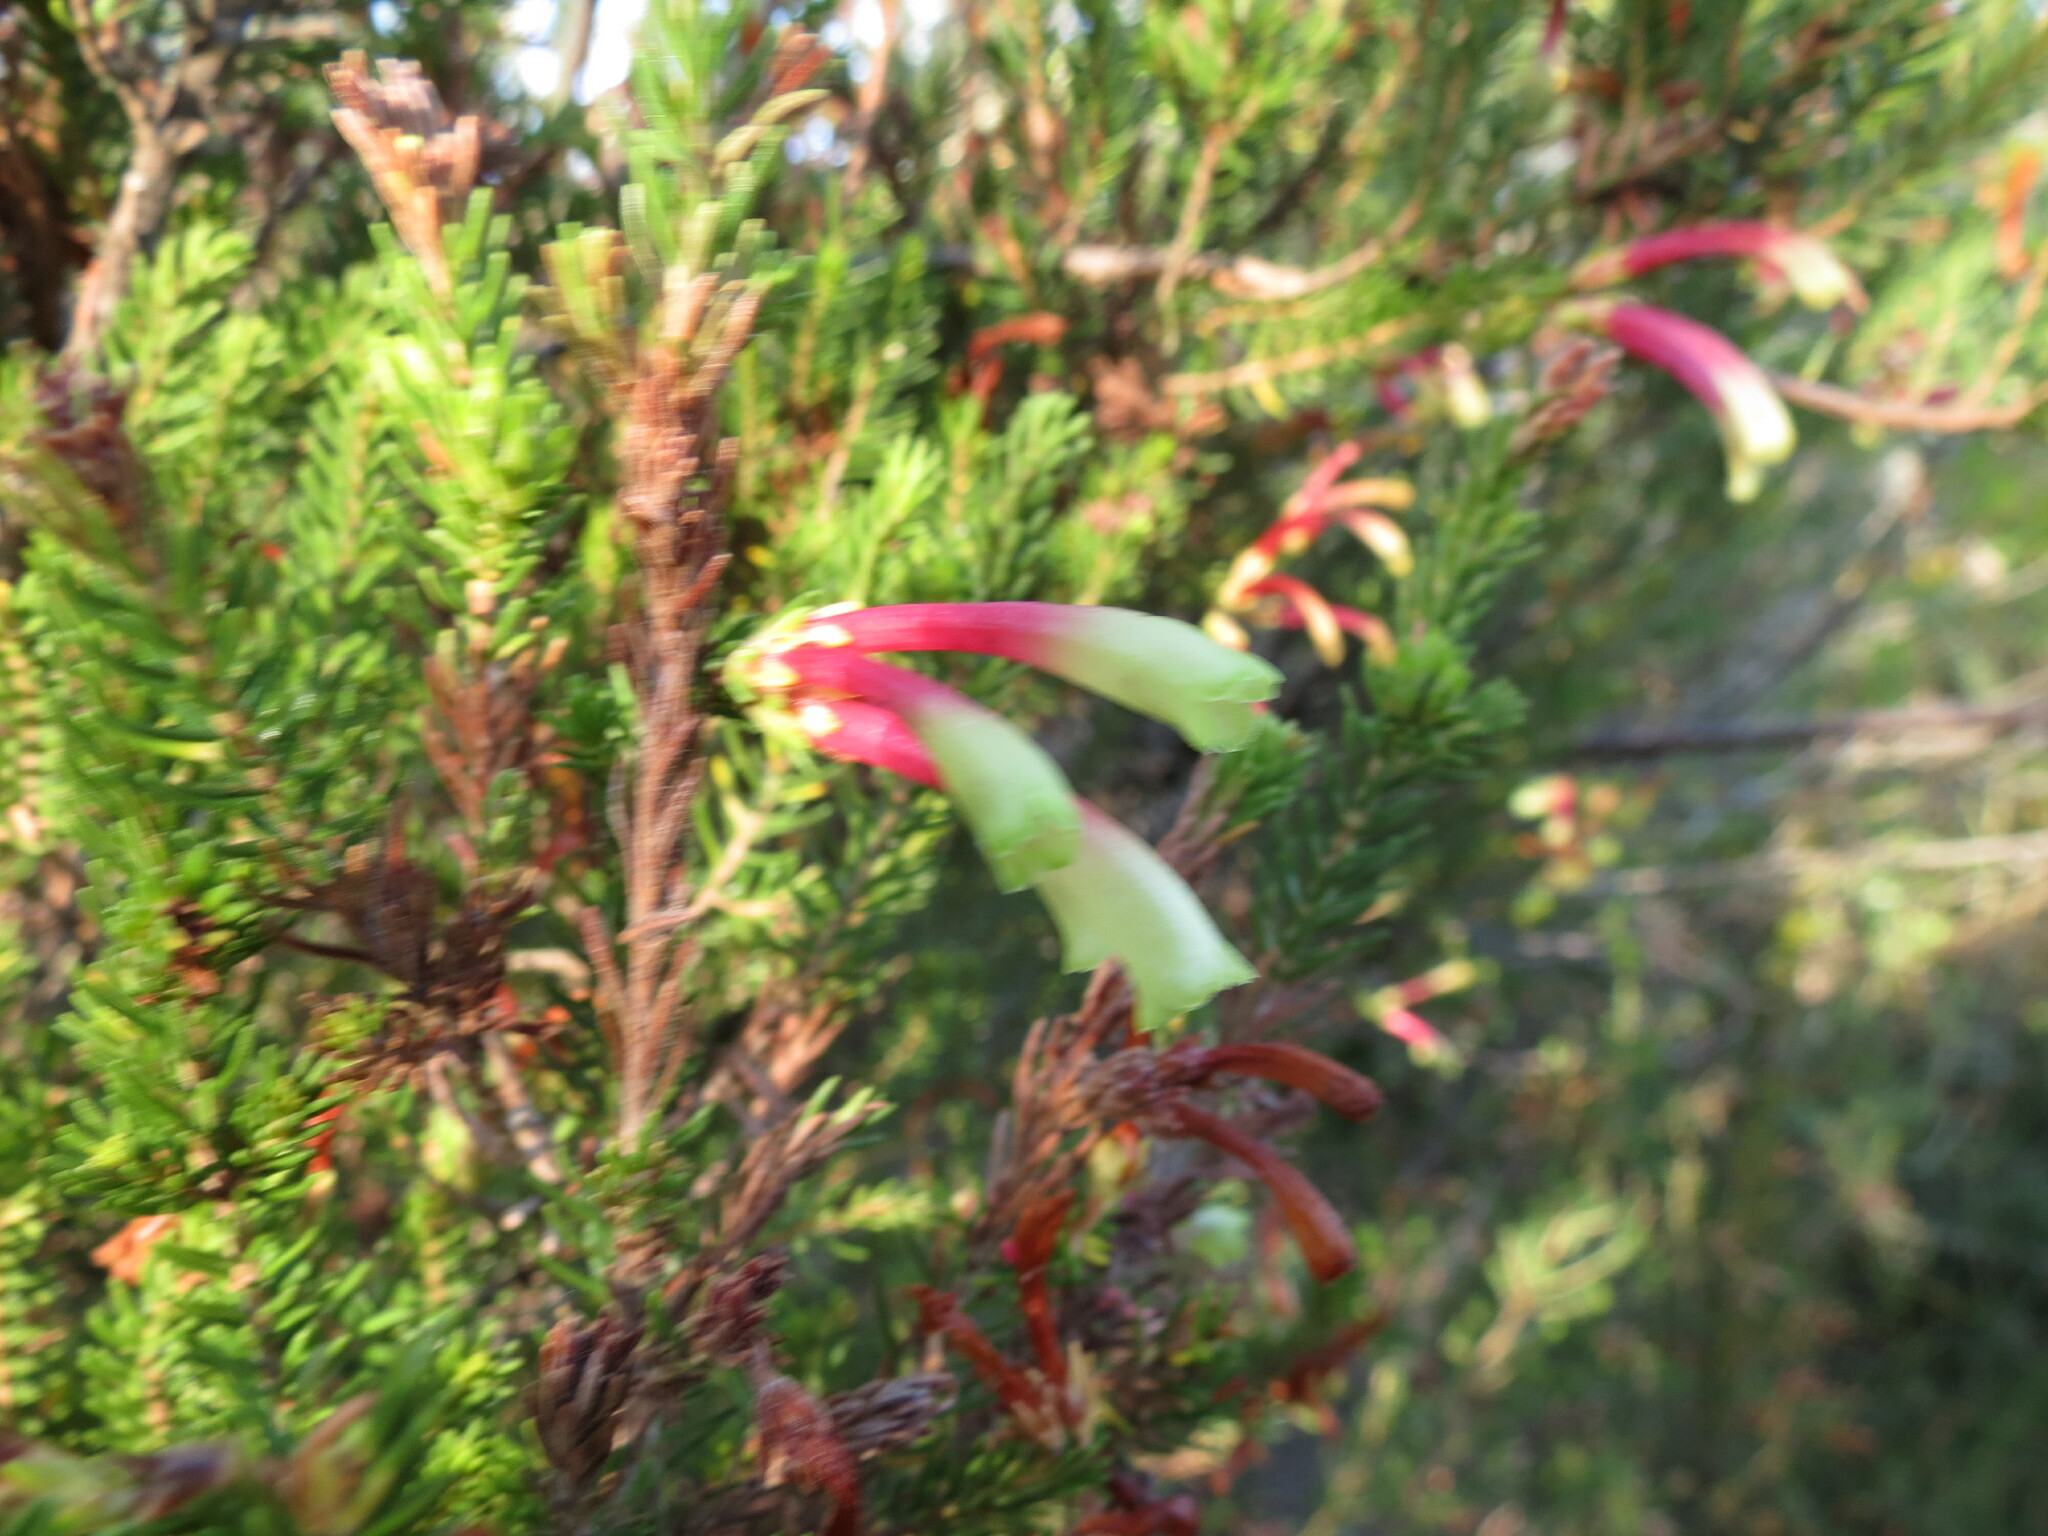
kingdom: Plantae
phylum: Tracheophyta
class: Magnoliopsida
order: Ericales
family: Ericaceae
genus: Erica
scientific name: Erica unicolor
